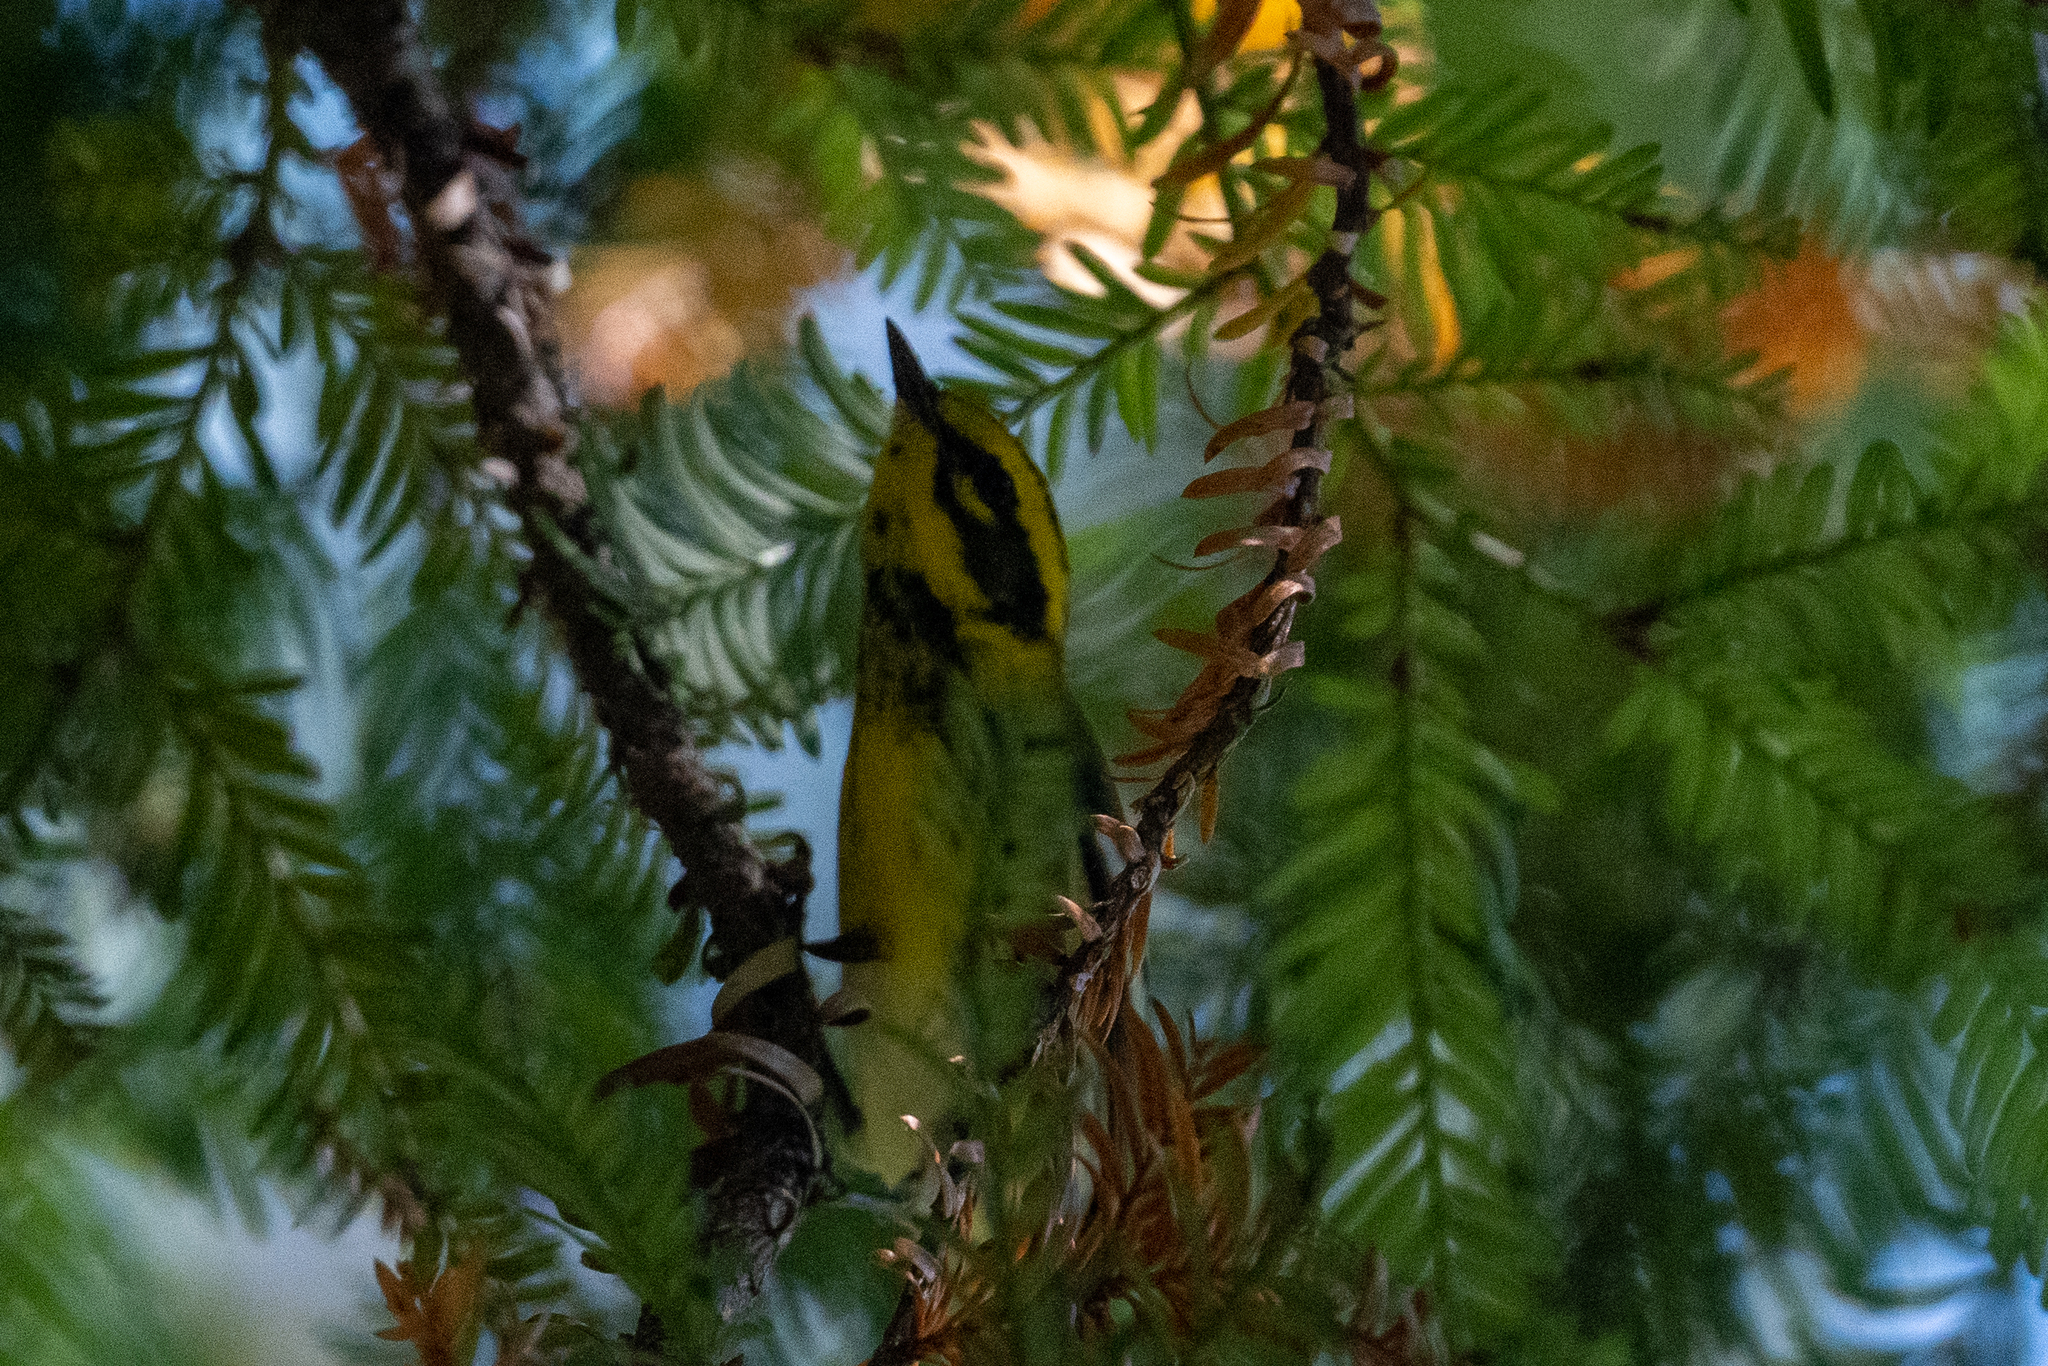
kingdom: Animalia
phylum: Chordata
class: Aves
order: Passeriformes
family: Parulidae
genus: Setophaga
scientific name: Setophaga townsendi
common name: Townsend's warbler
